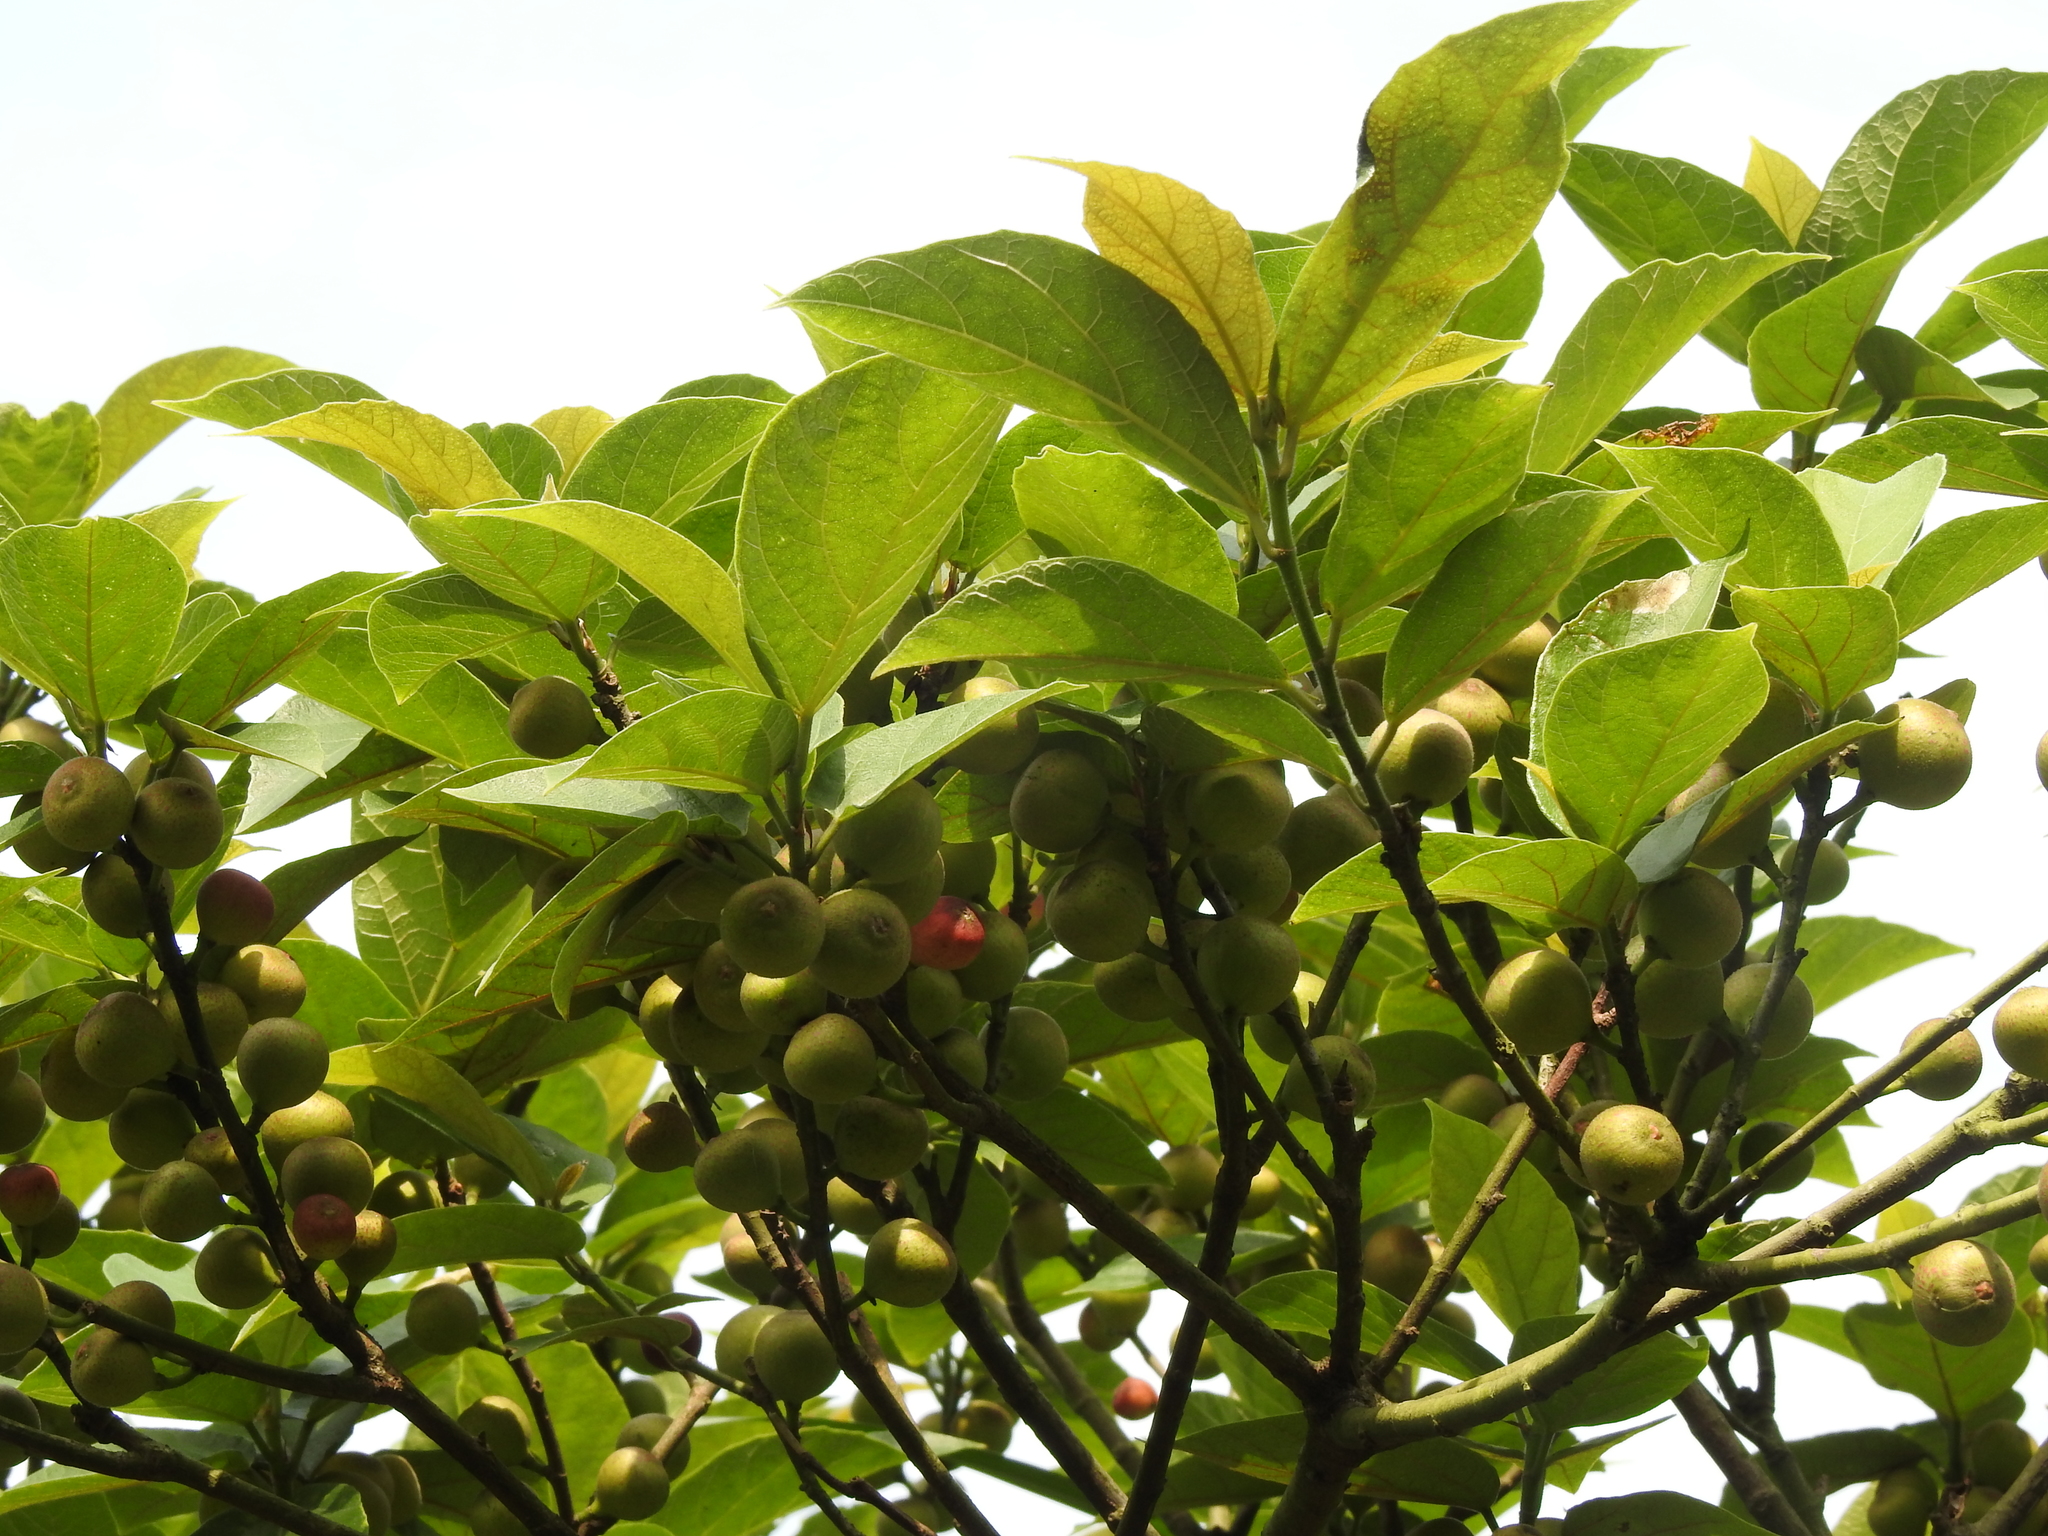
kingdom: Plantae
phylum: Tracheophyta
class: Magnoliopsida
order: Rosales
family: Moraceae
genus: Ficus
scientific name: Ficus erecta
